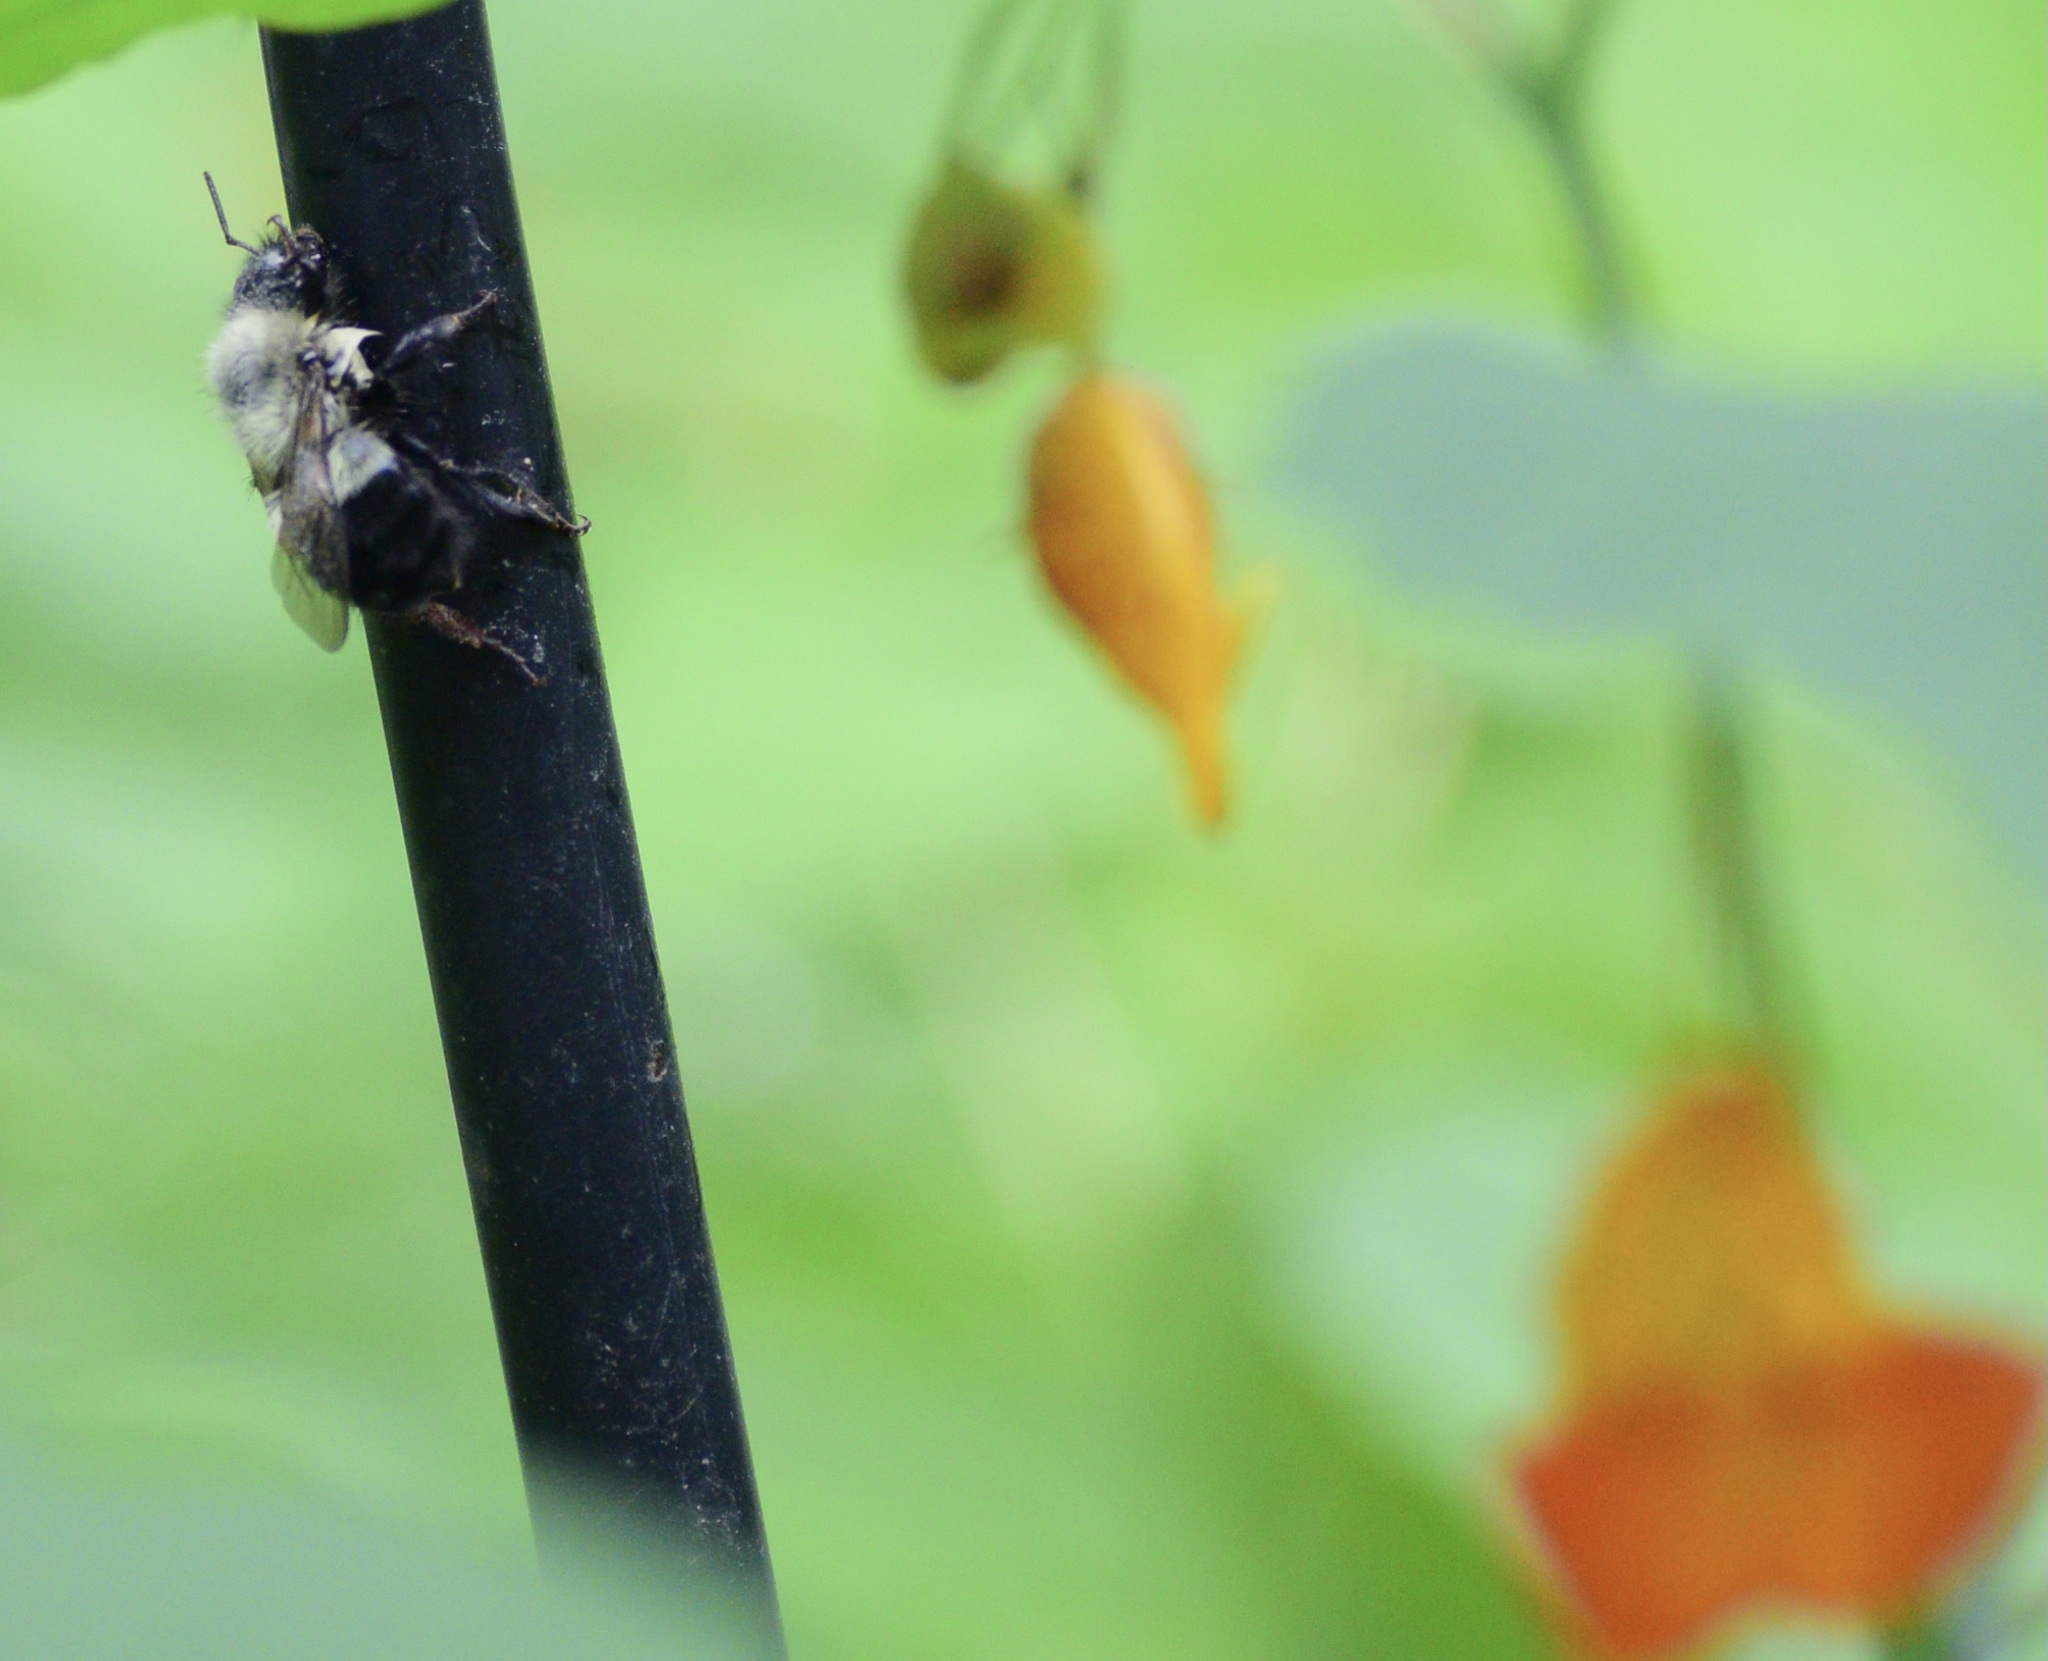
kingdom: Animalia
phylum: Arthropoda
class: Insecta
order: Hymenoptera
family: Apidae
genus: Bombus
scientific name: Bombus impatiens
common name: Common eastern bumble bee
